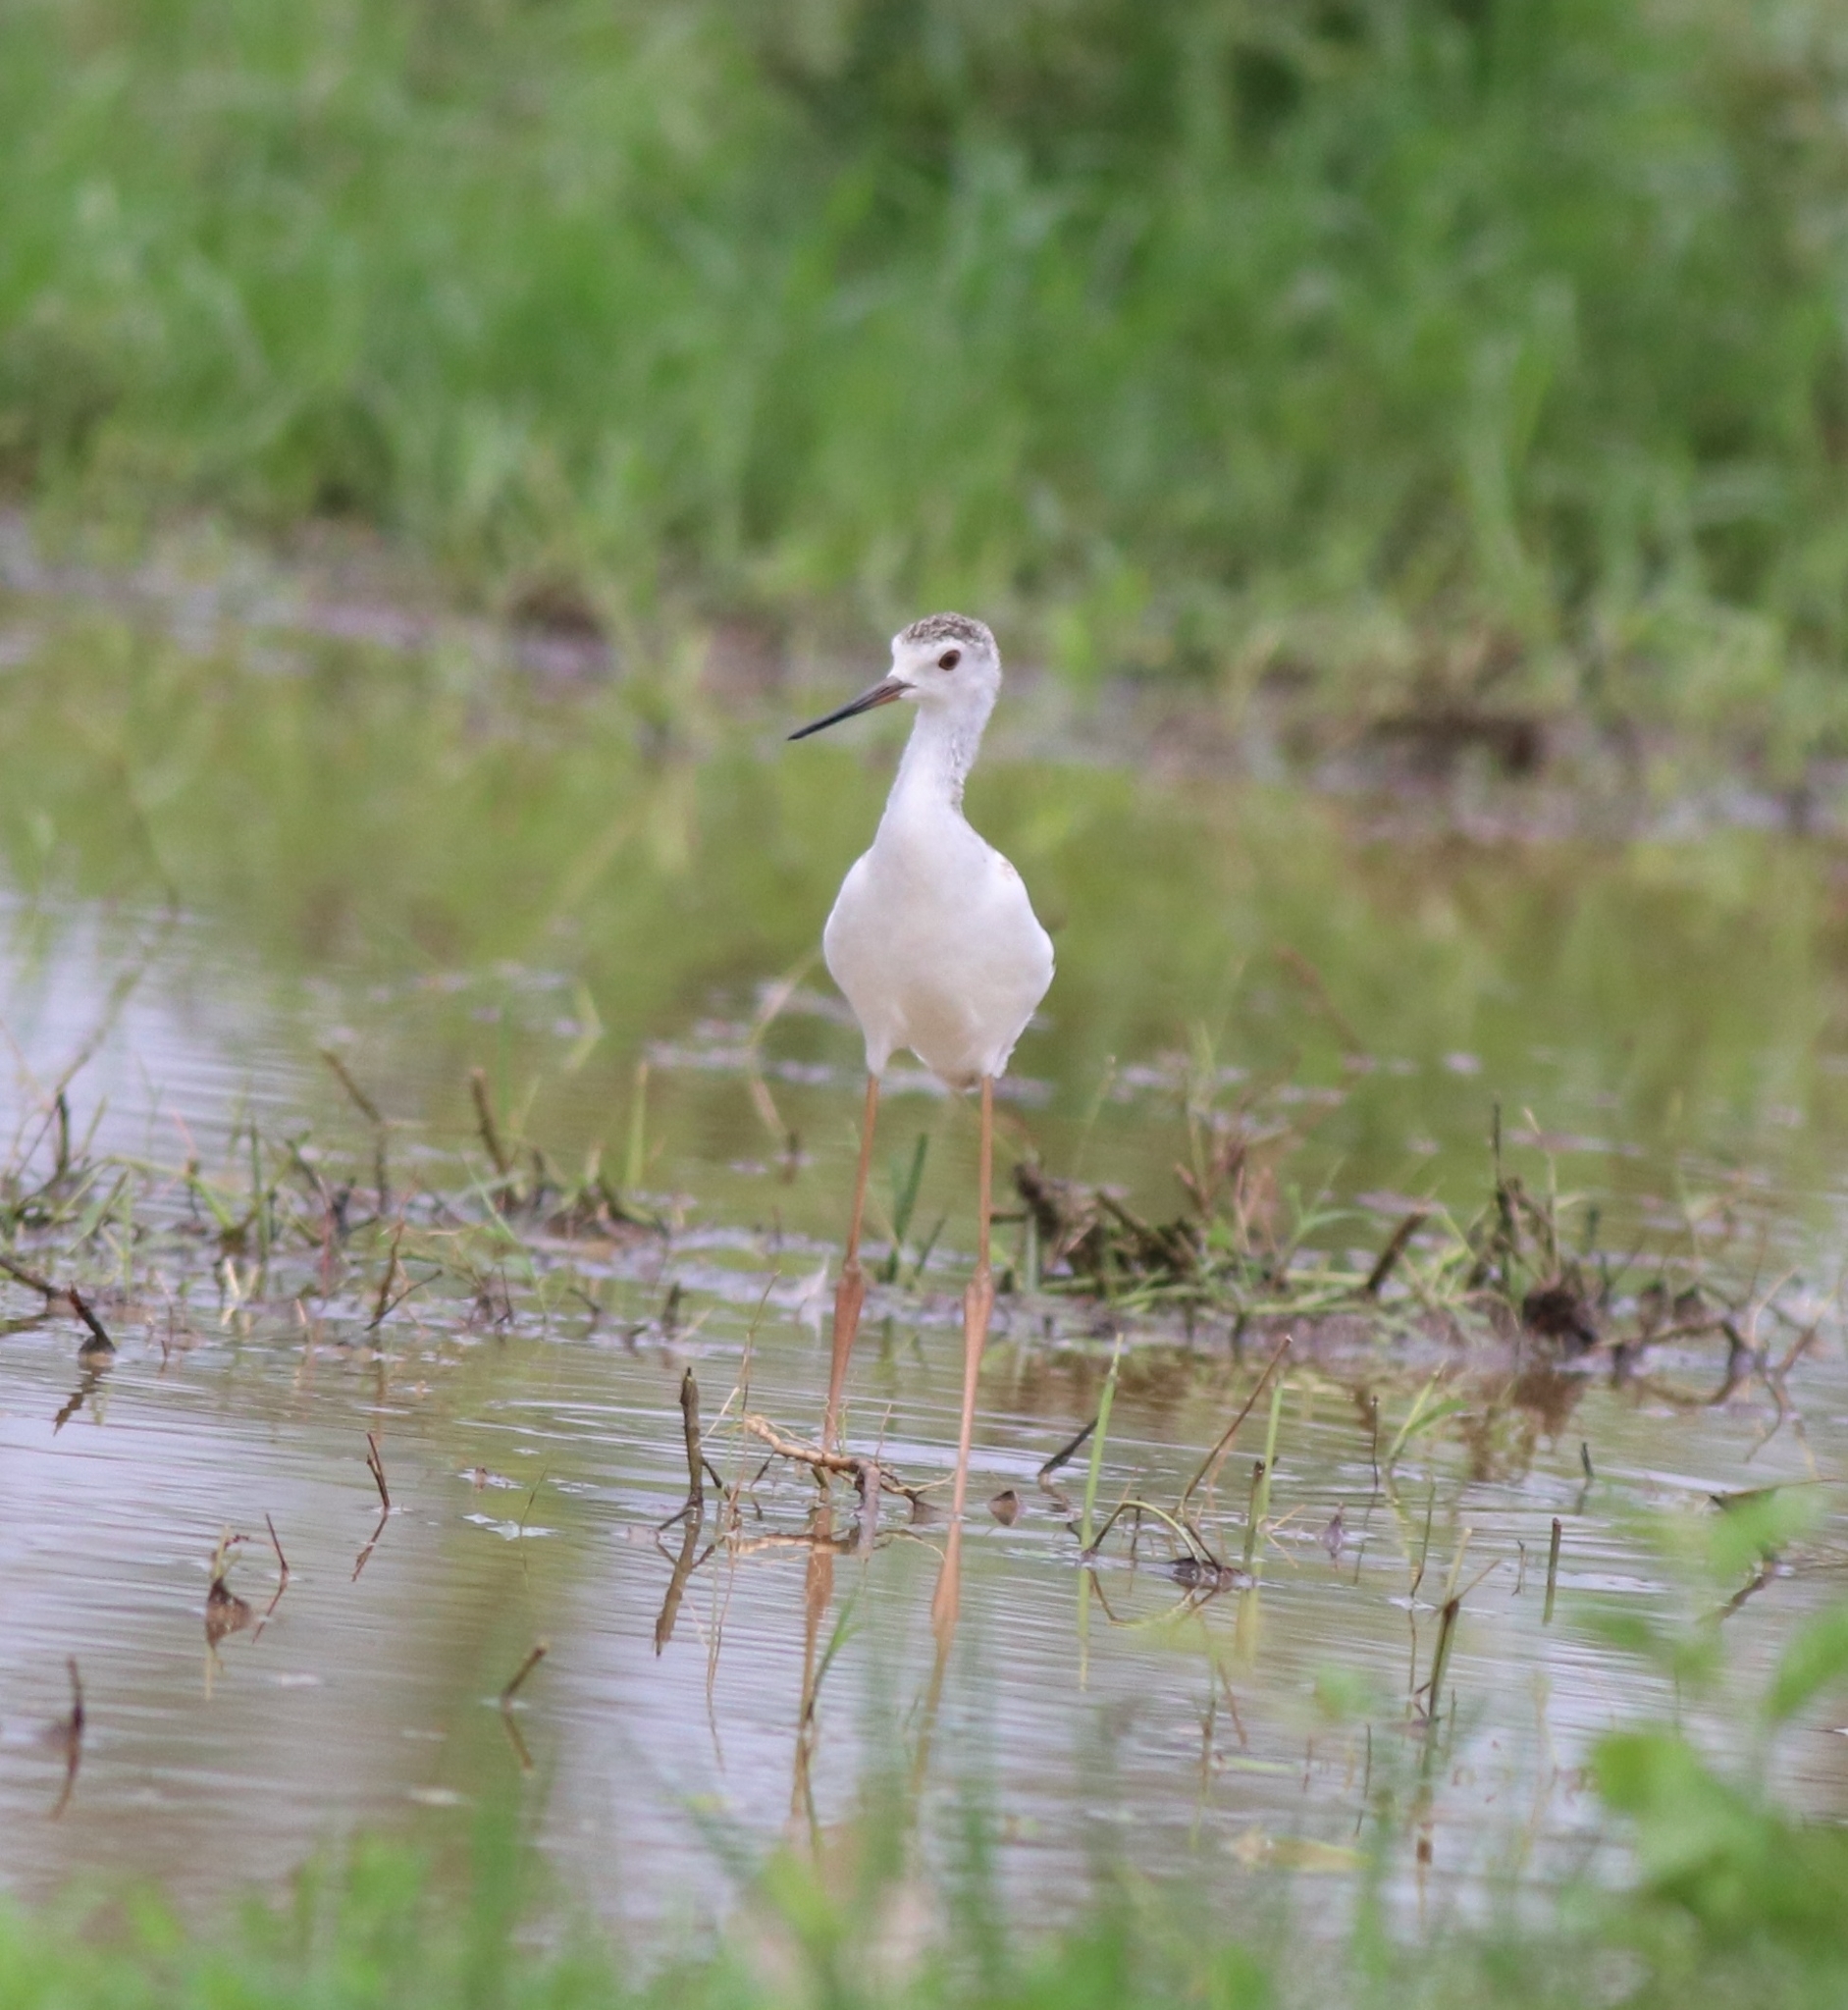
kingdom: Animalia
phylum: Chordata
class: Aves
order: Charadriiformes
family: Recurvirostridae
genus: Himantopus
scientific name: Himantopus himantopus
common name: Black-winged stilt
